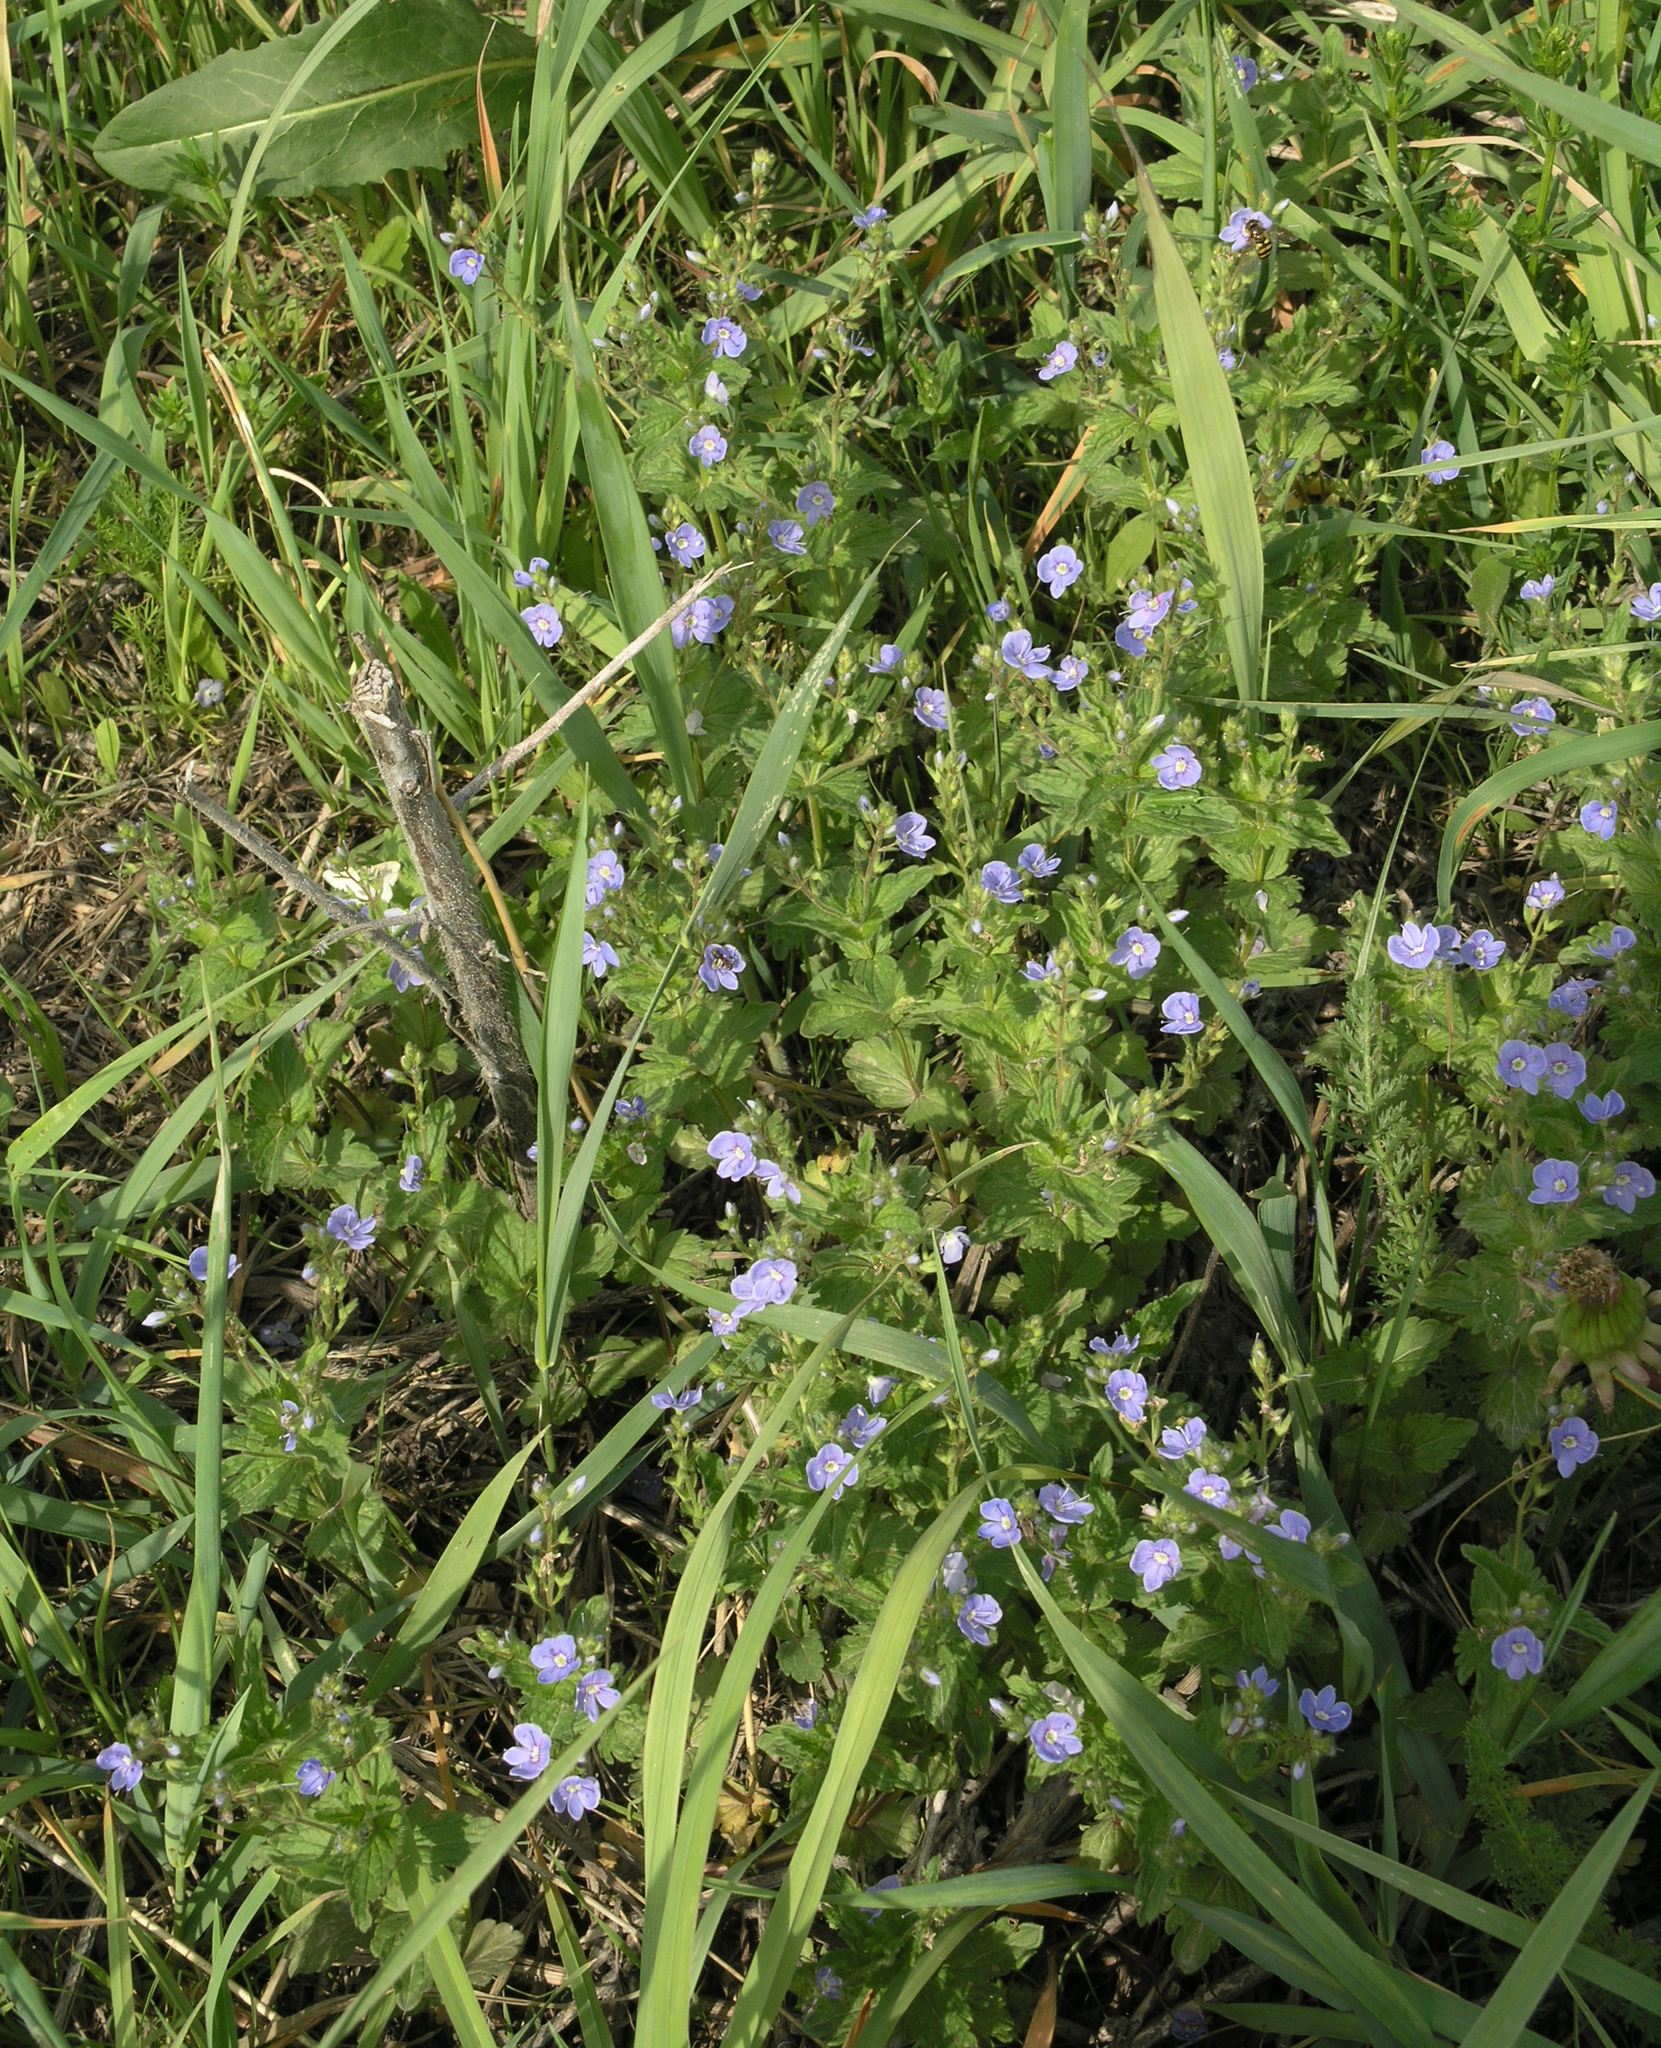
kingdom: Plantae
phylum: Tracheophyta
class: Magnoliopsida
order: Lamiales
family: Plantaginaceae
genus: Veronica
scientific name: Veronica chamaedrys
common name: Germander speedwell
